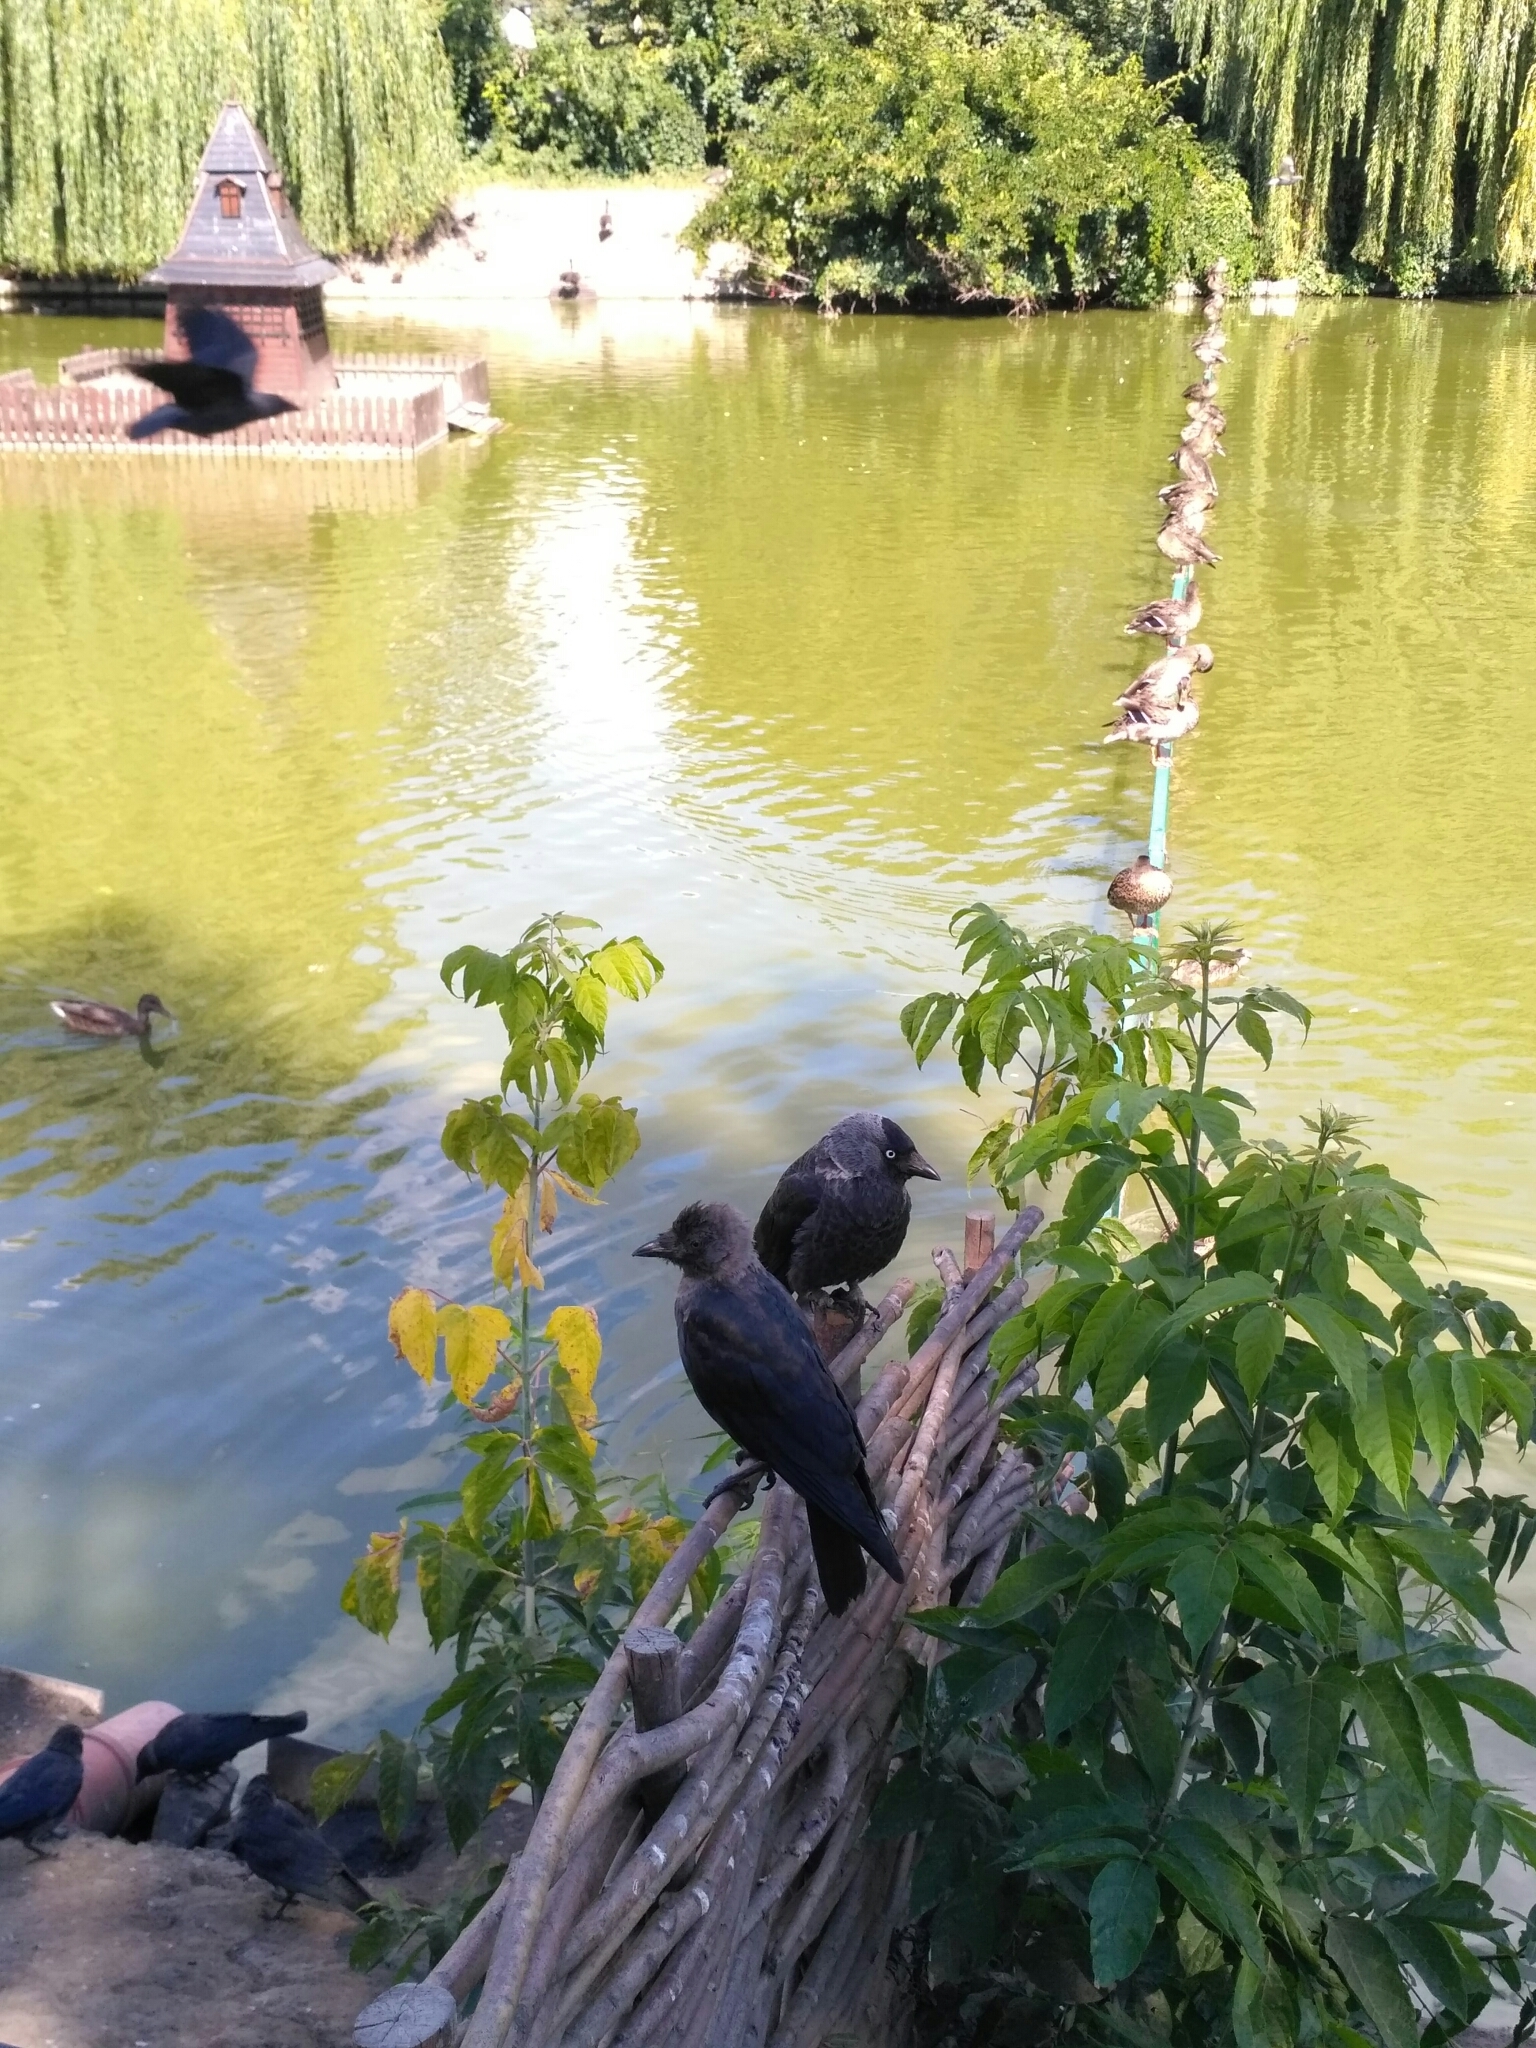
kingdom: Animalia
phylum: Chordata
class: Aves
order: Passeriformes
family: Corvidae
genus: Coloeus
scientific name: Coloeus monedula
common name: Western jackdaw
